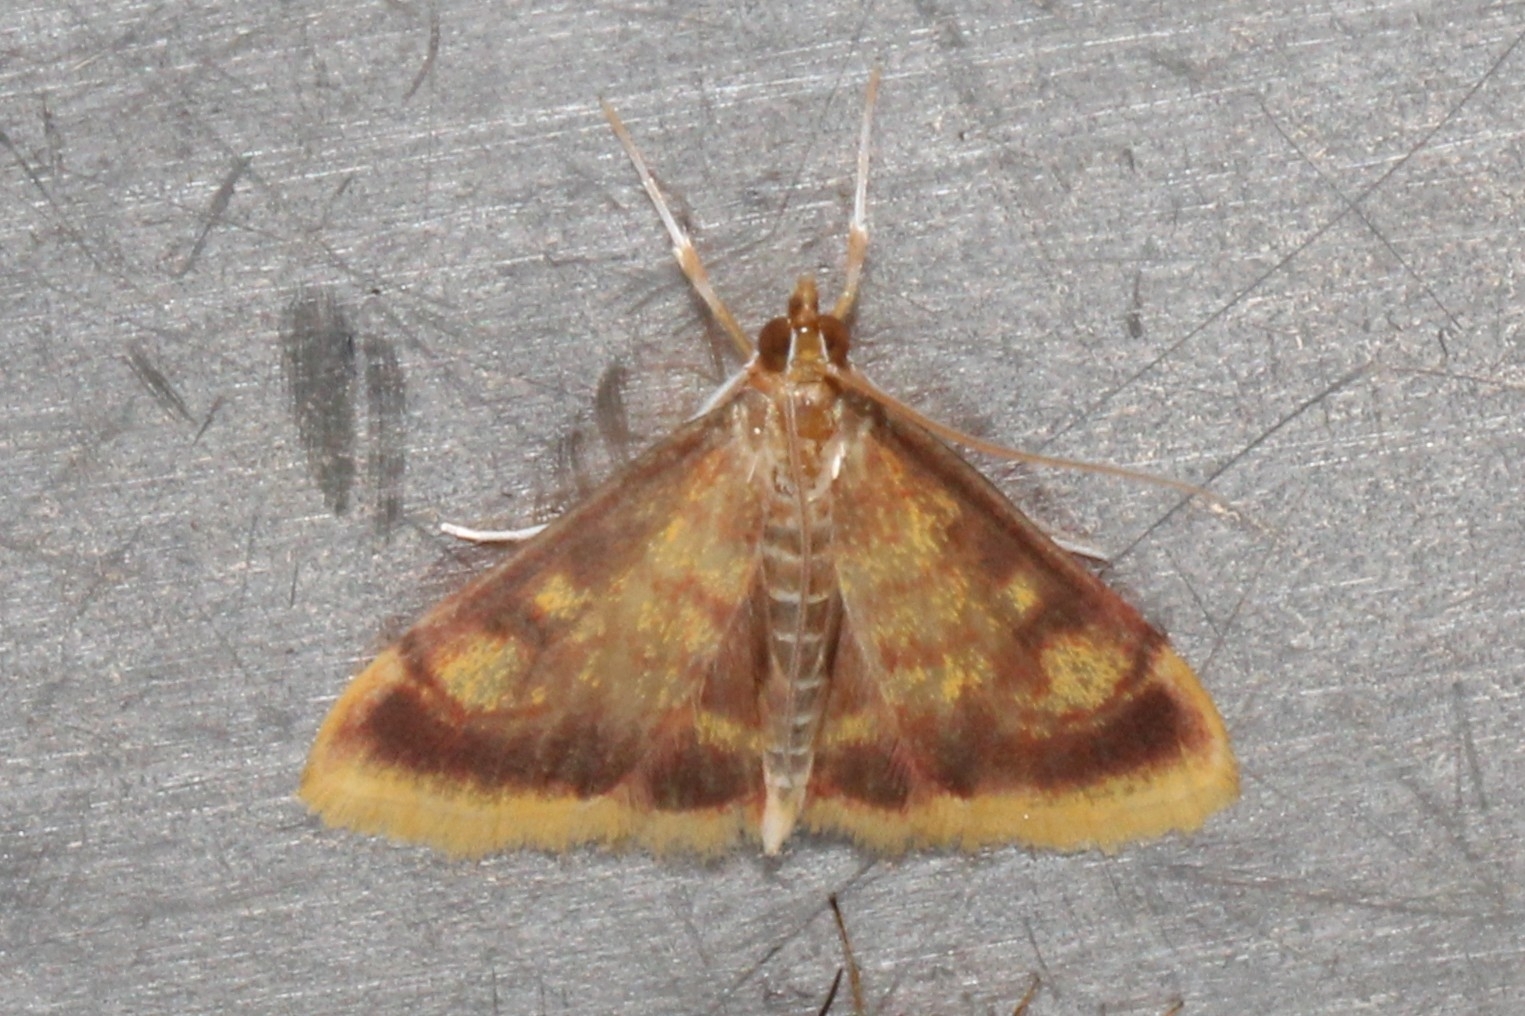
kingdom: Animalia
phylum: Arthropoda
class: Insecta
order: Lepidoptera
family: Crambidae
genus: Pyrausta
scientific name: Pyrausta acrionalis
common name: Mint-loving pyrausta moth
